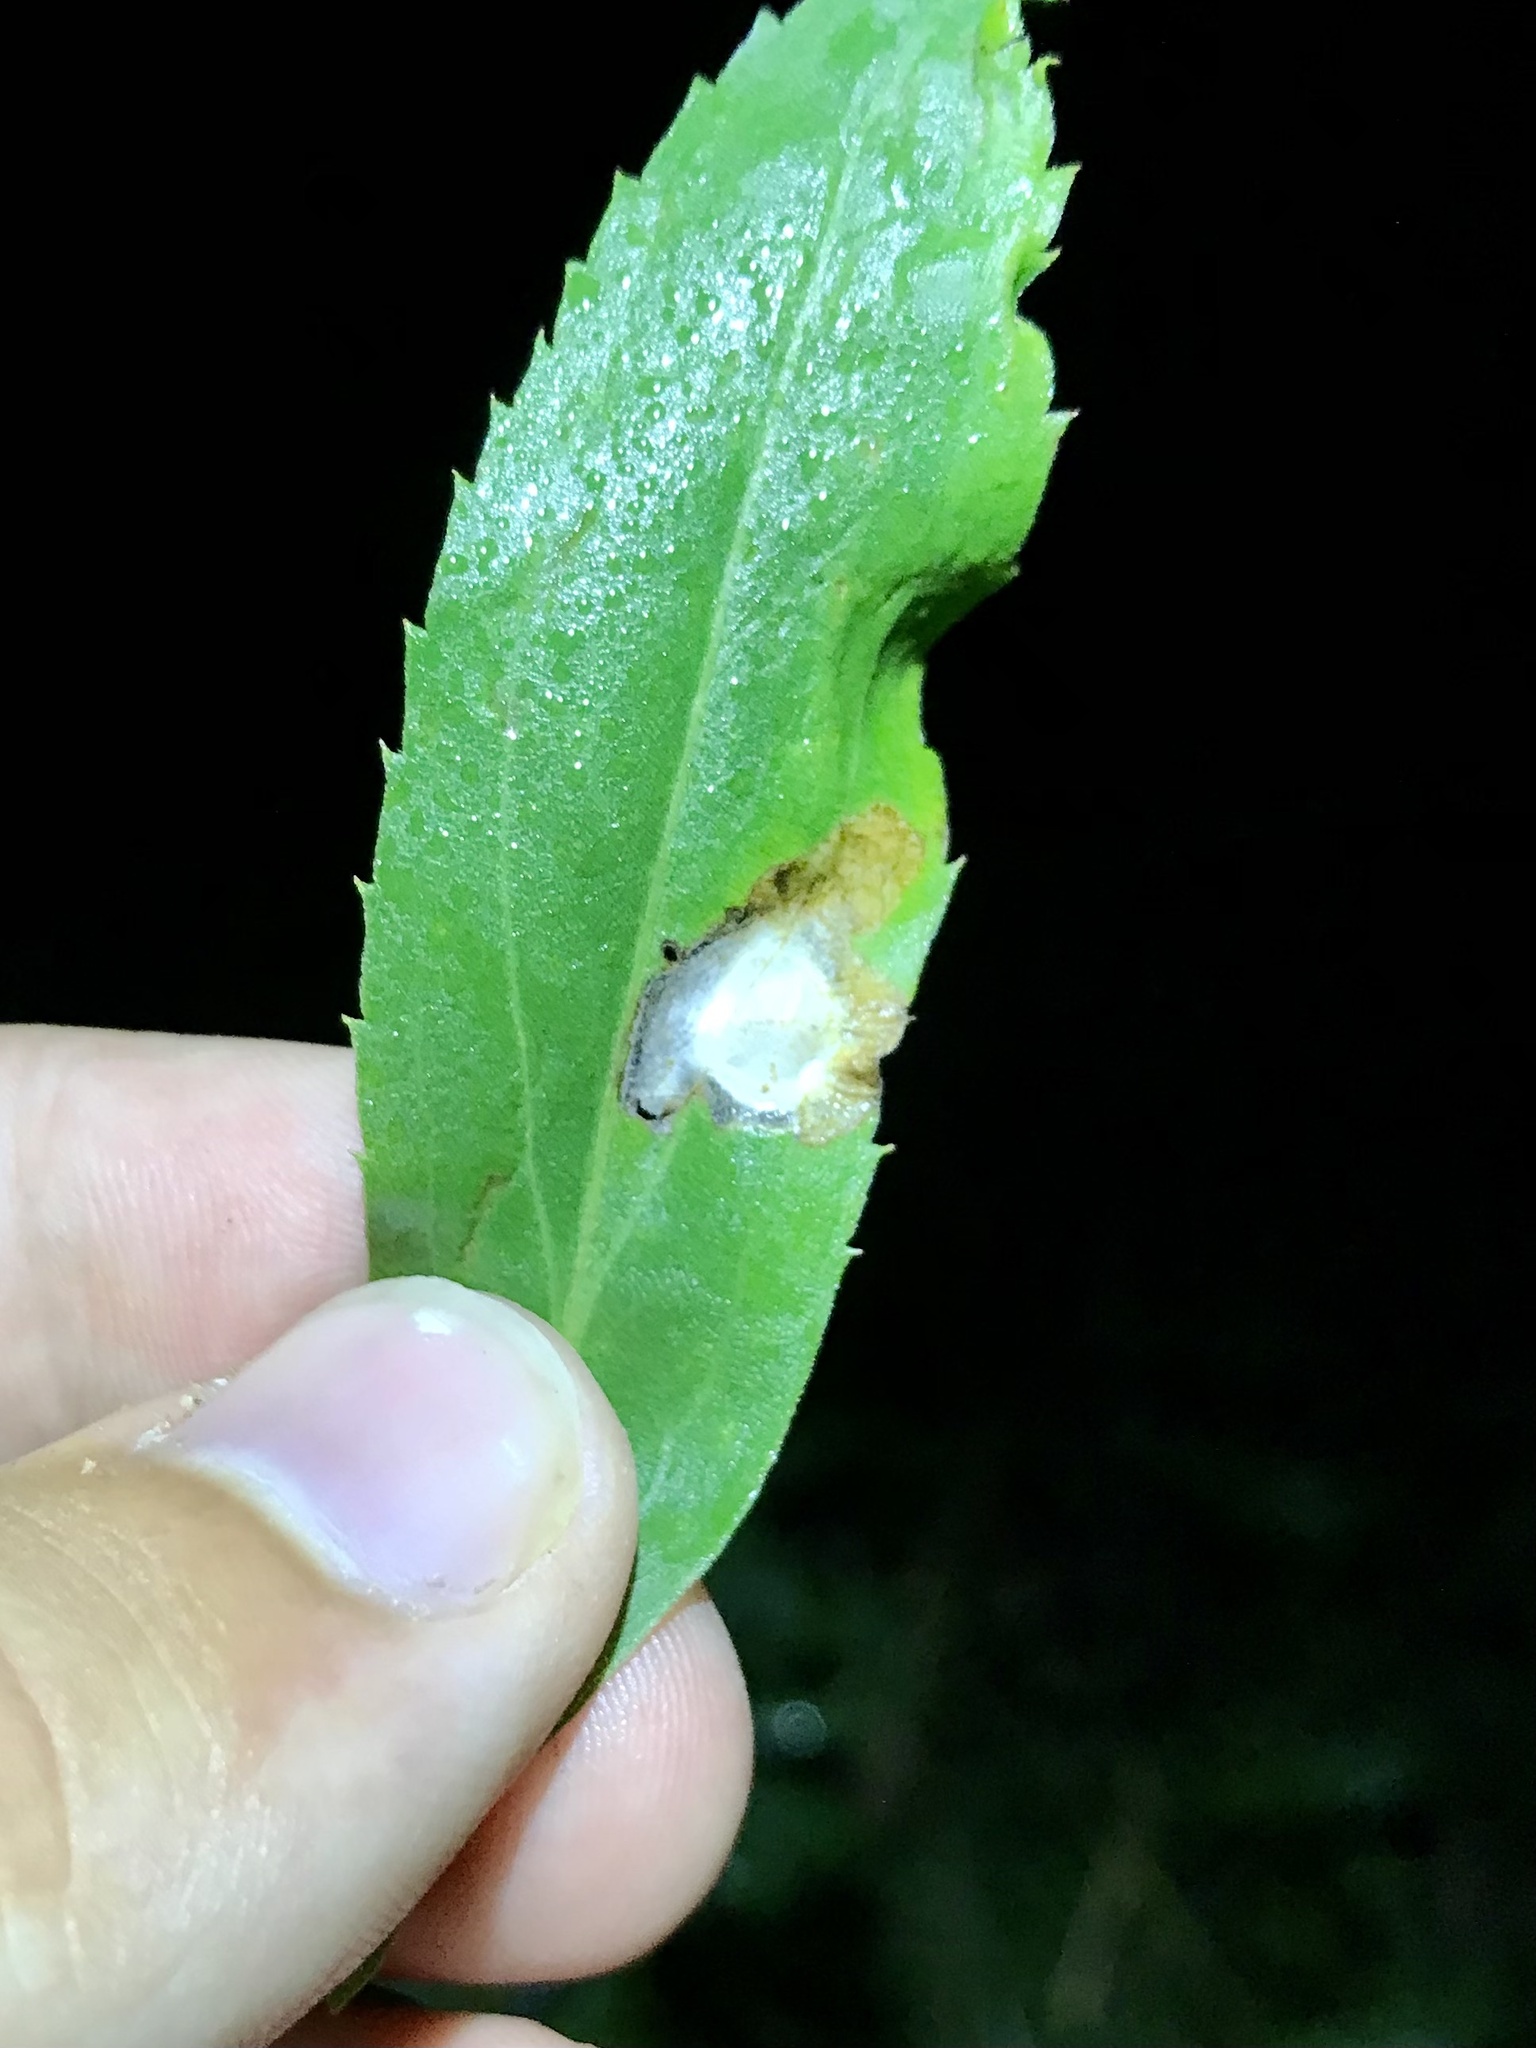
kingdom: Animalia
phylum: Arthropoda
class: Insecta
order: Lepidoptera
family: Tischeriidae
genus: Astrotischeria
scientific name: Astrotischeria solidagonifoliella
